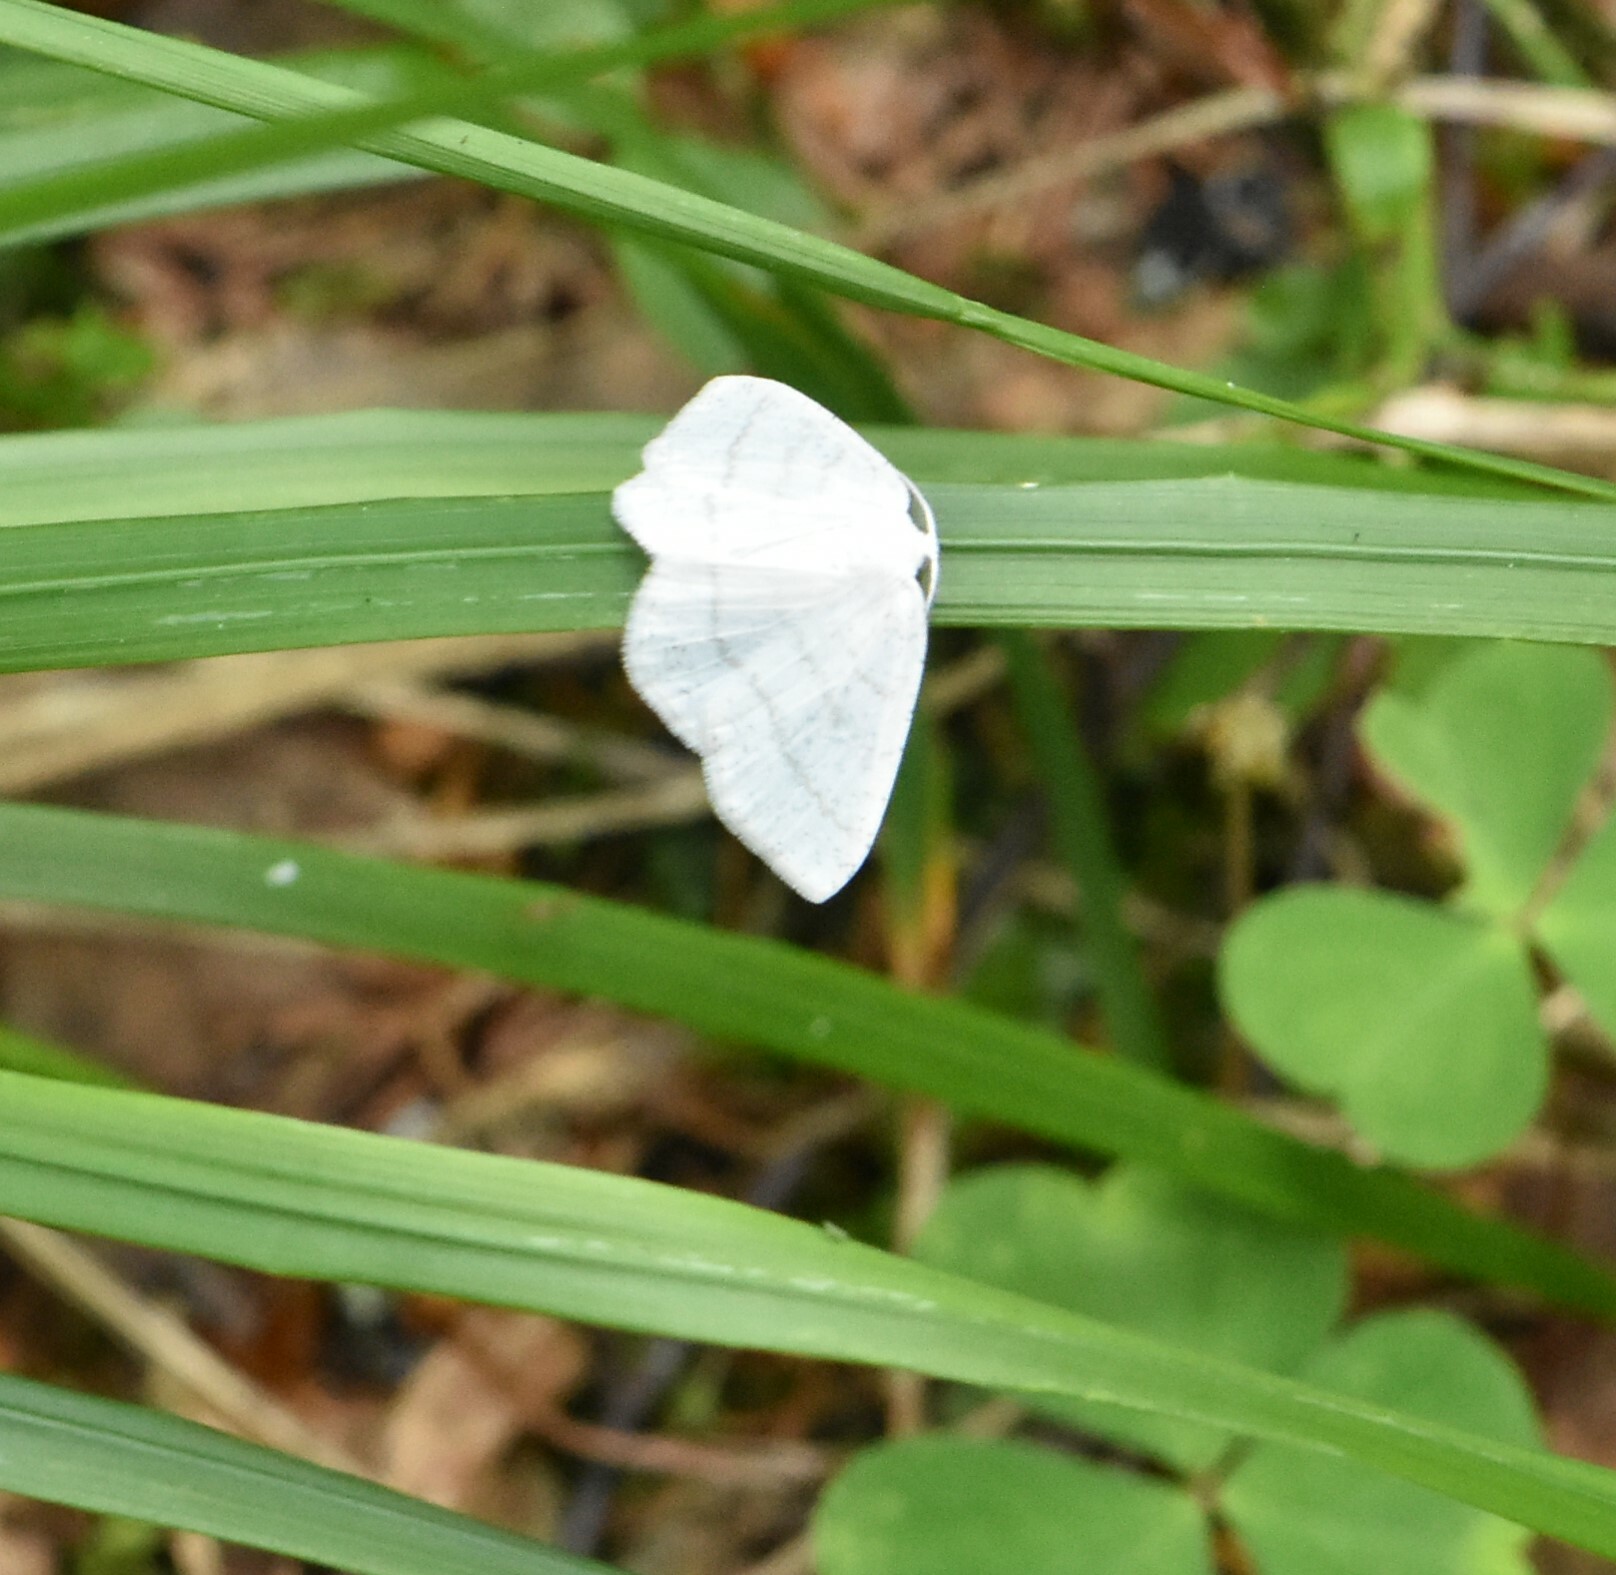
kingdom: Animalia
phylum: Arthropoda
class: Insecta
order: Lepidoptera
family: Geometridae
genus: Cabera
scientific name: Cabera pusaria
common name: Common white wave
